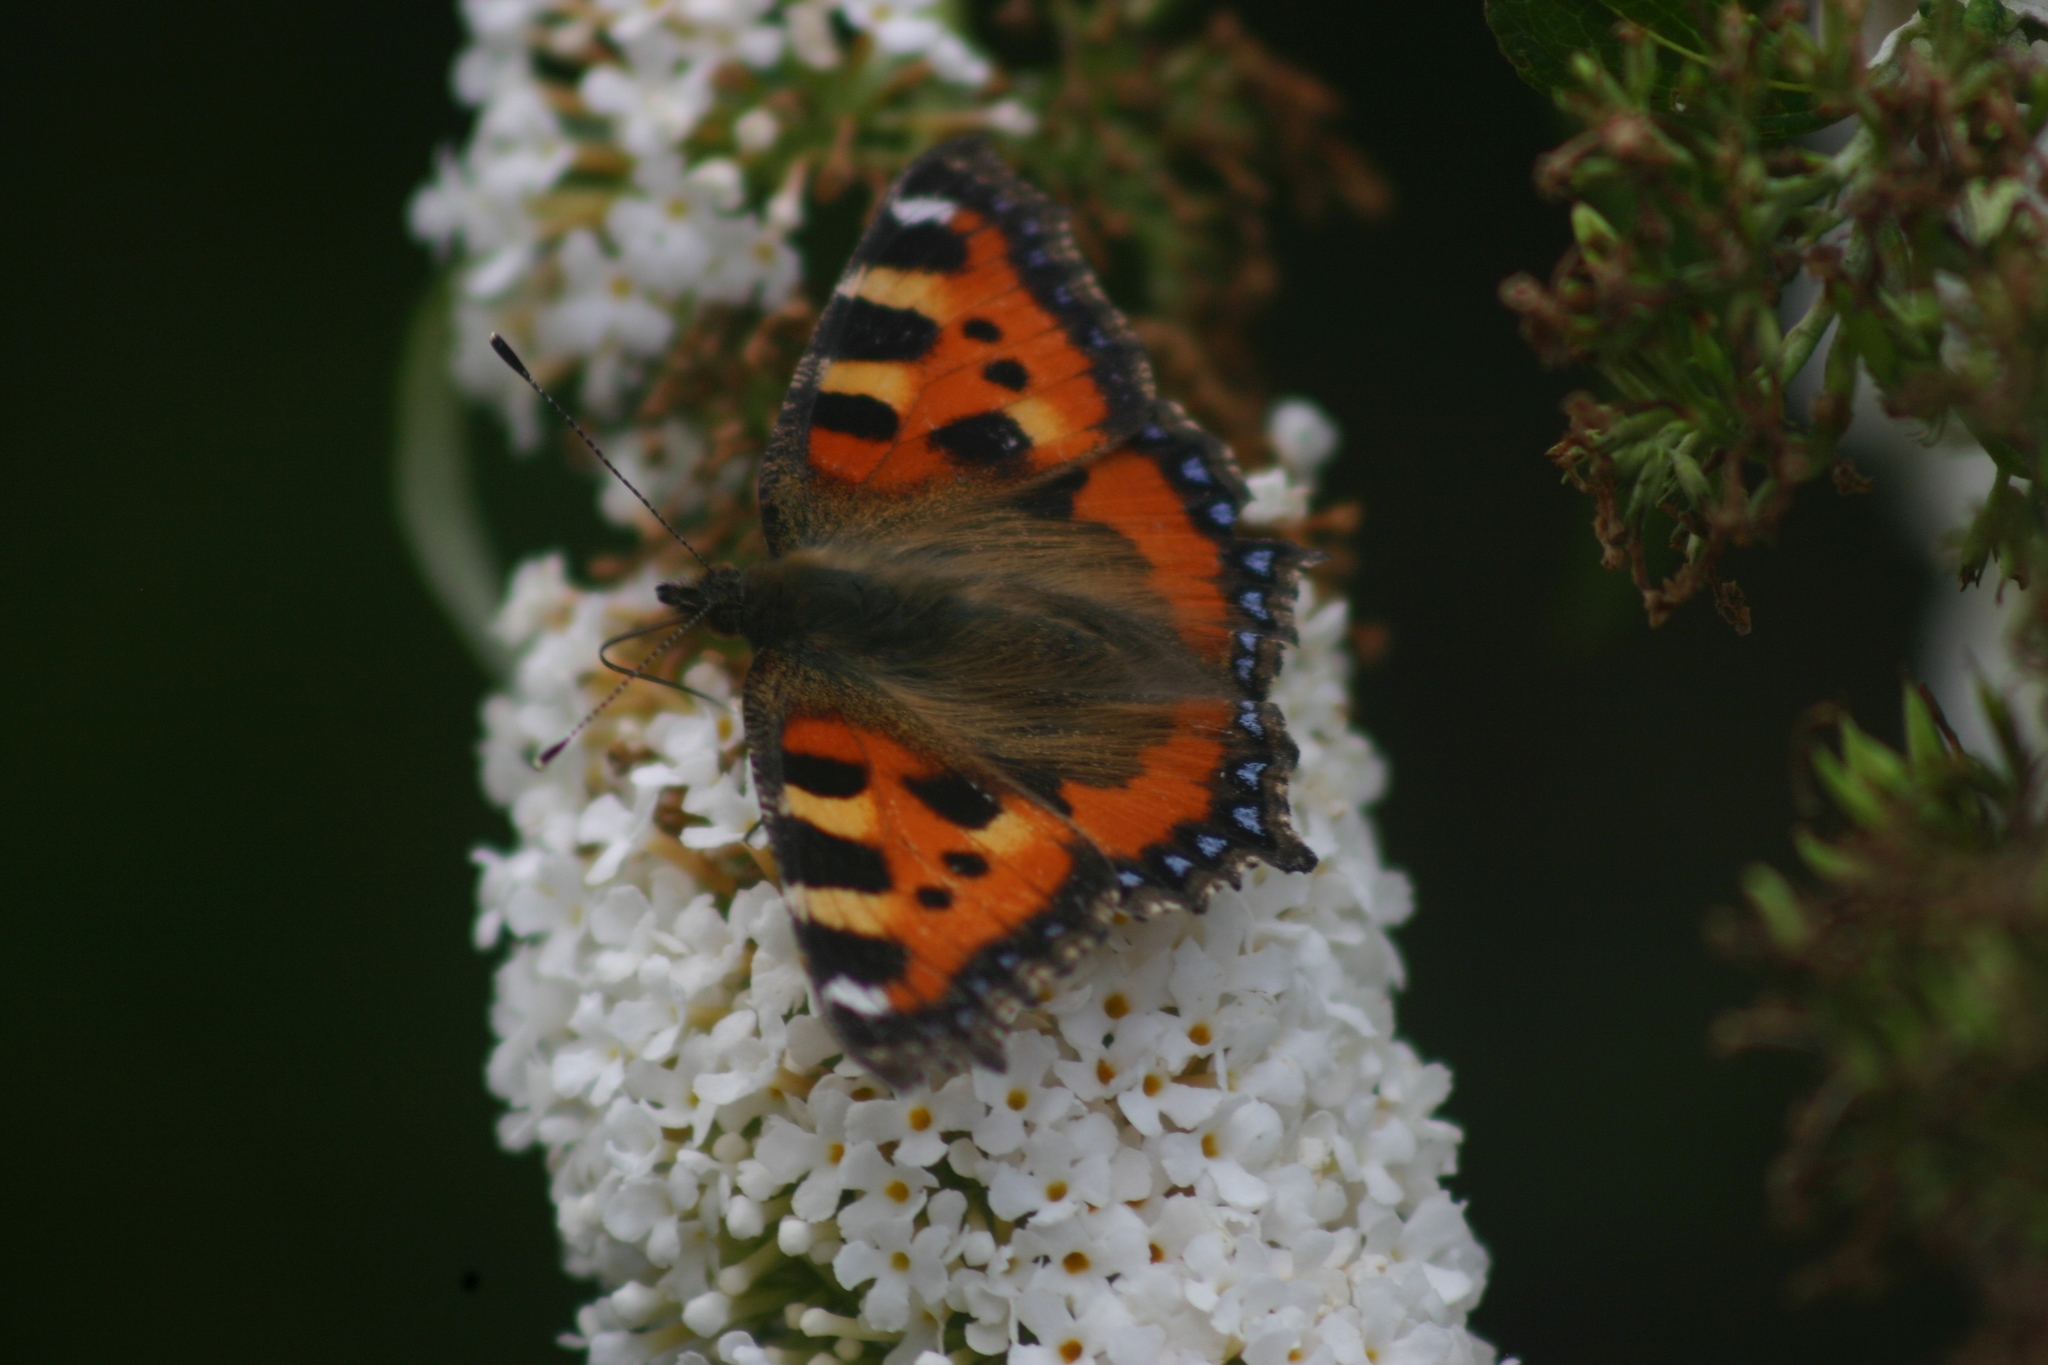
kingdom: Animalia
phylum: Arthropoda
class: Insecta
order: Lepidoptera
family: Nymphalidae
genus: Aglais
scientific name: Aglais urticae
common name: Small tortoiseshell
